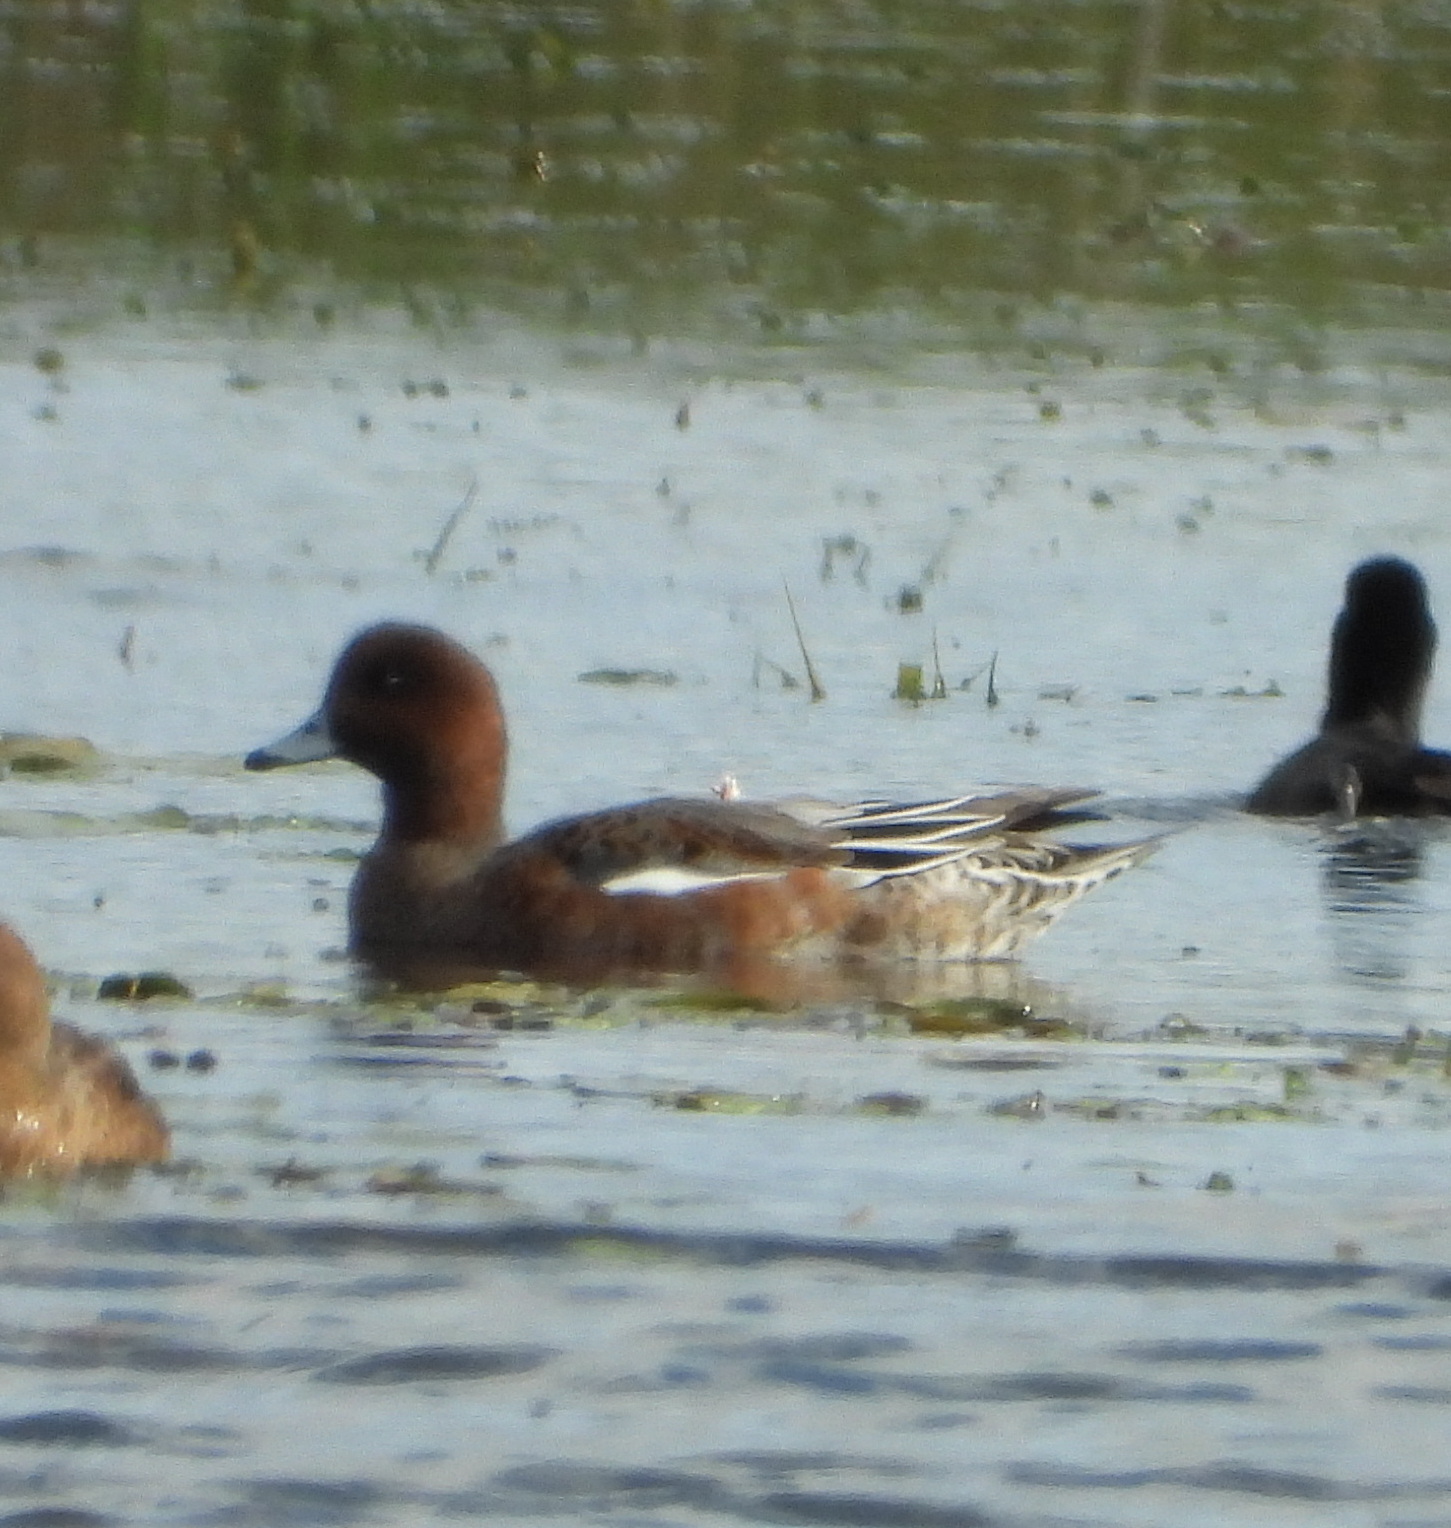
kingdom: Animalia
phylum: Chordata
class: Aves
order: Anseriformes
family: Anatidae
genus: Mareca
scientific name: Mareca penelope
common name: Eurasian wigeon
